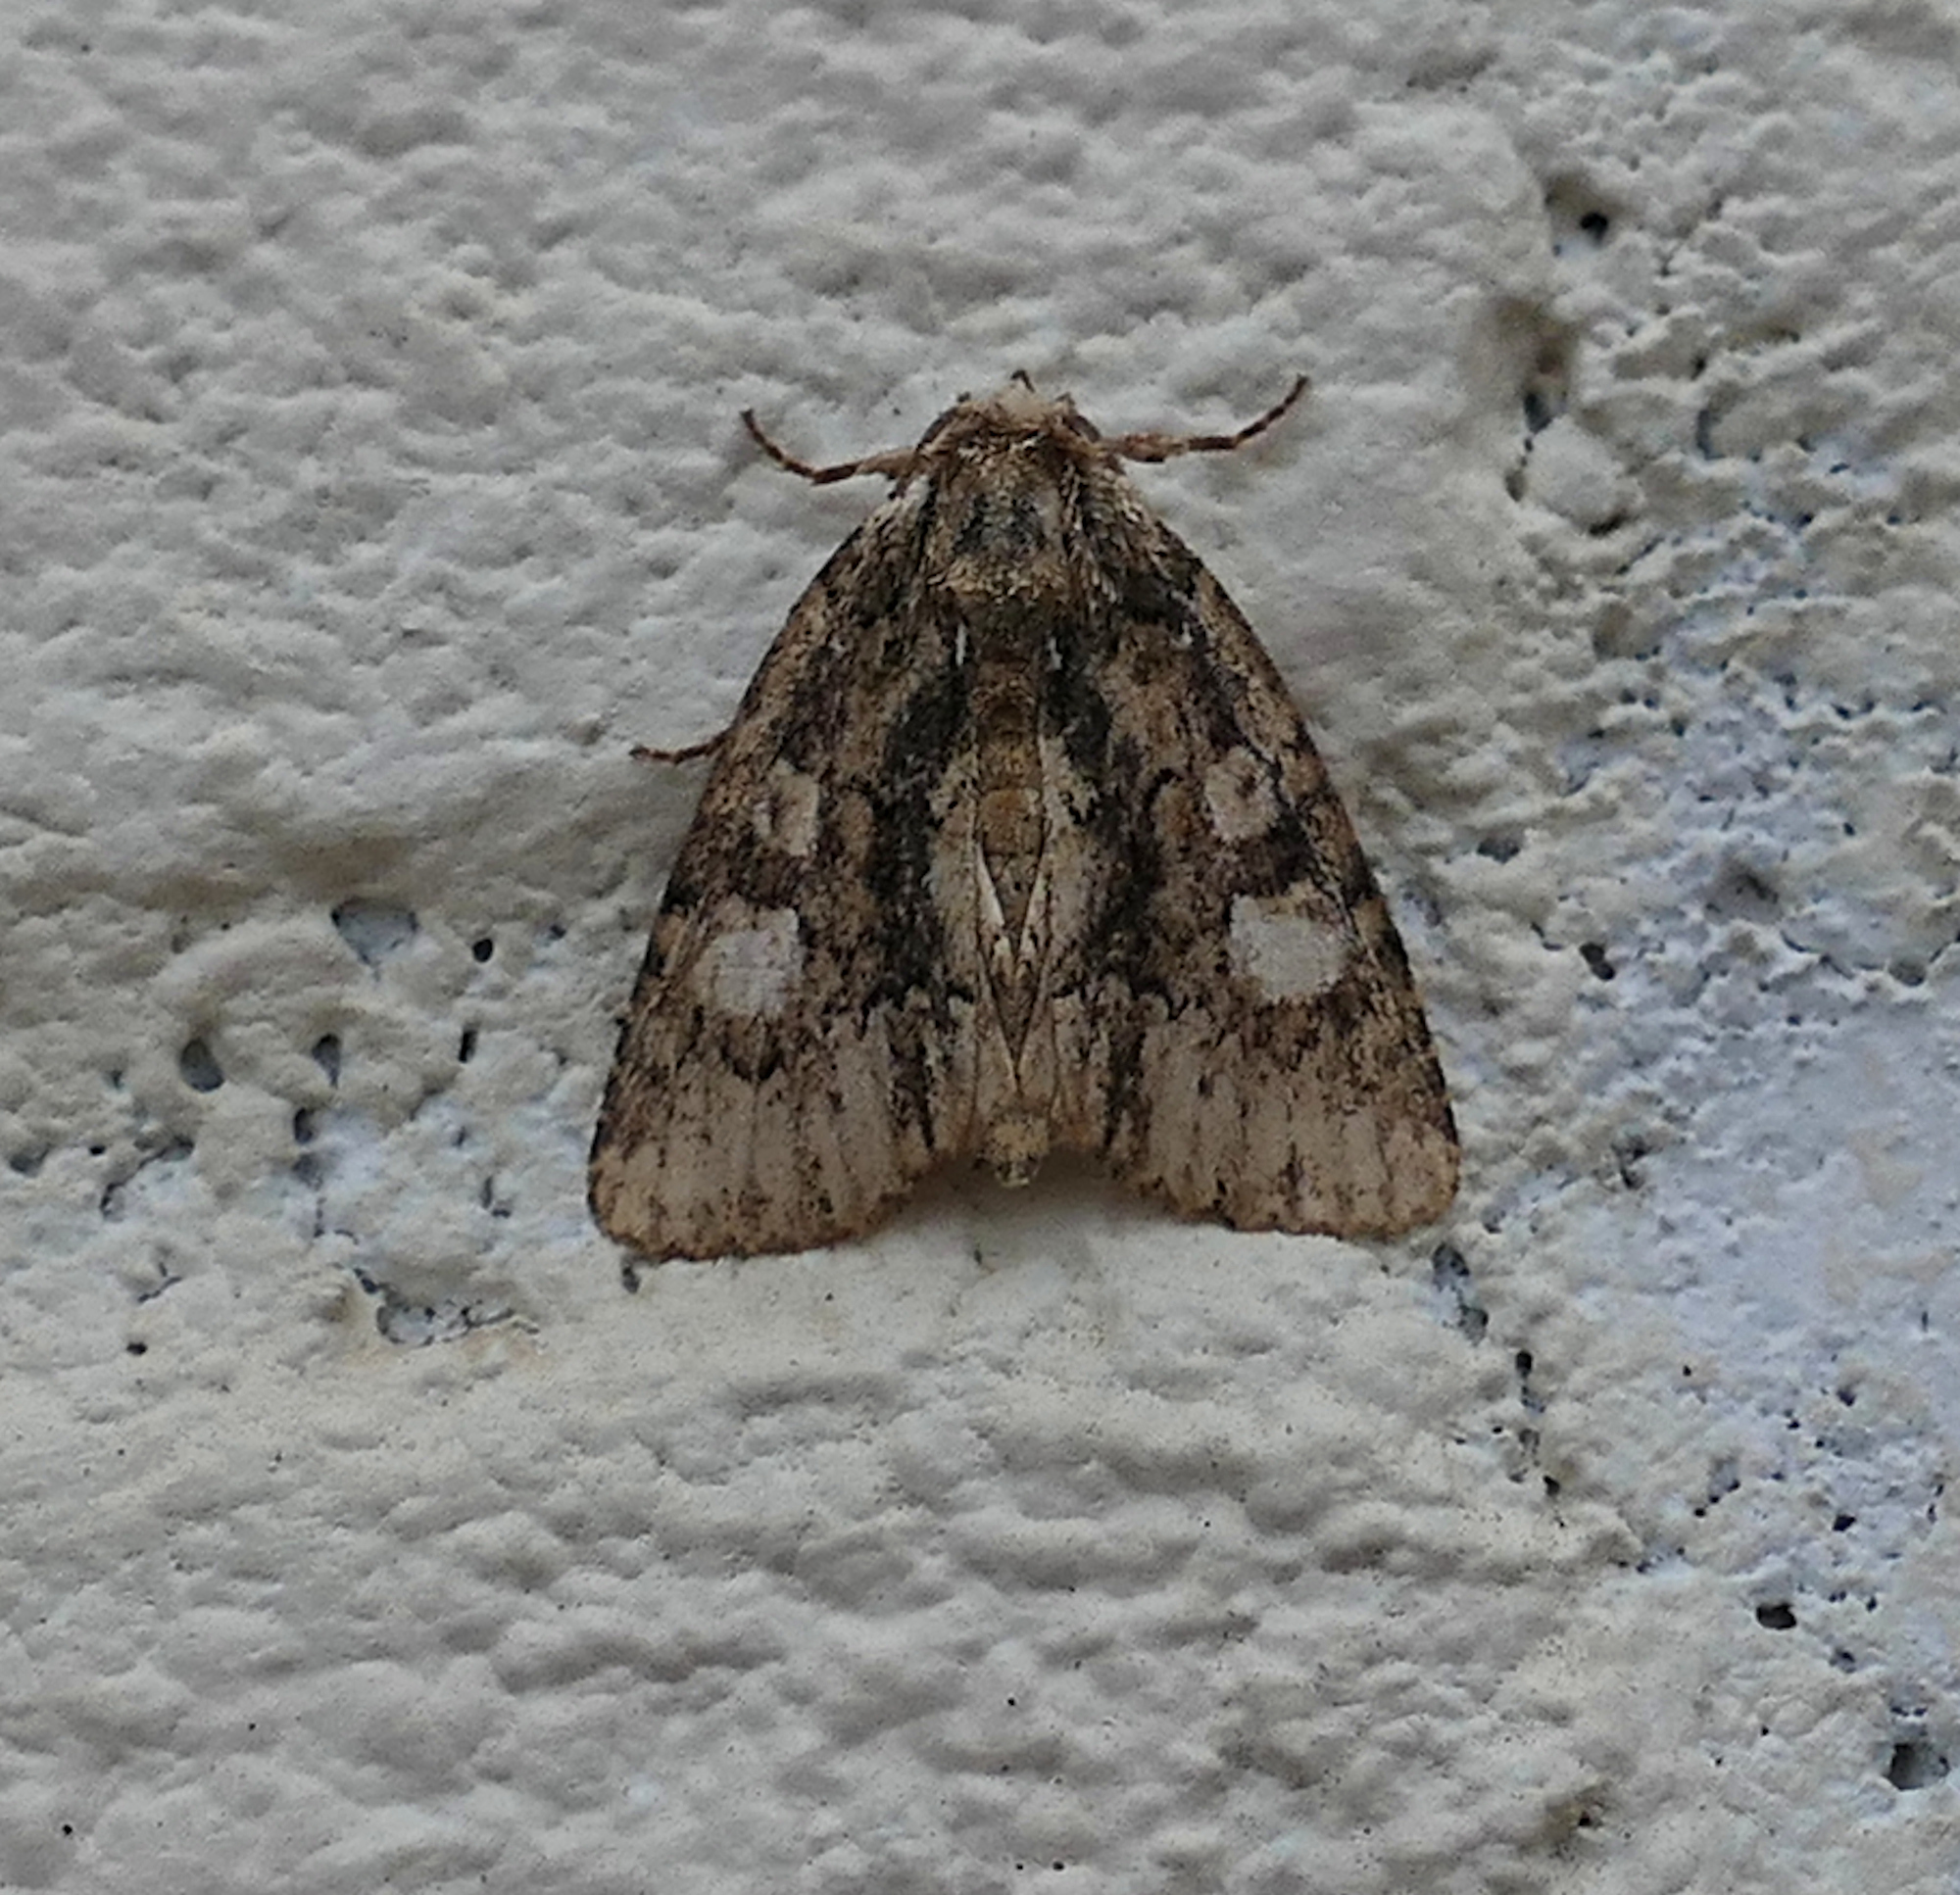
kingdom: Animalia
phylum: Arthropoda
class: Insecta
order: Lepidoptera
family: Noctuidae
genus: Phosphila
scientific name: Phosphila miselioides
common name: Spotted phosphila moth
